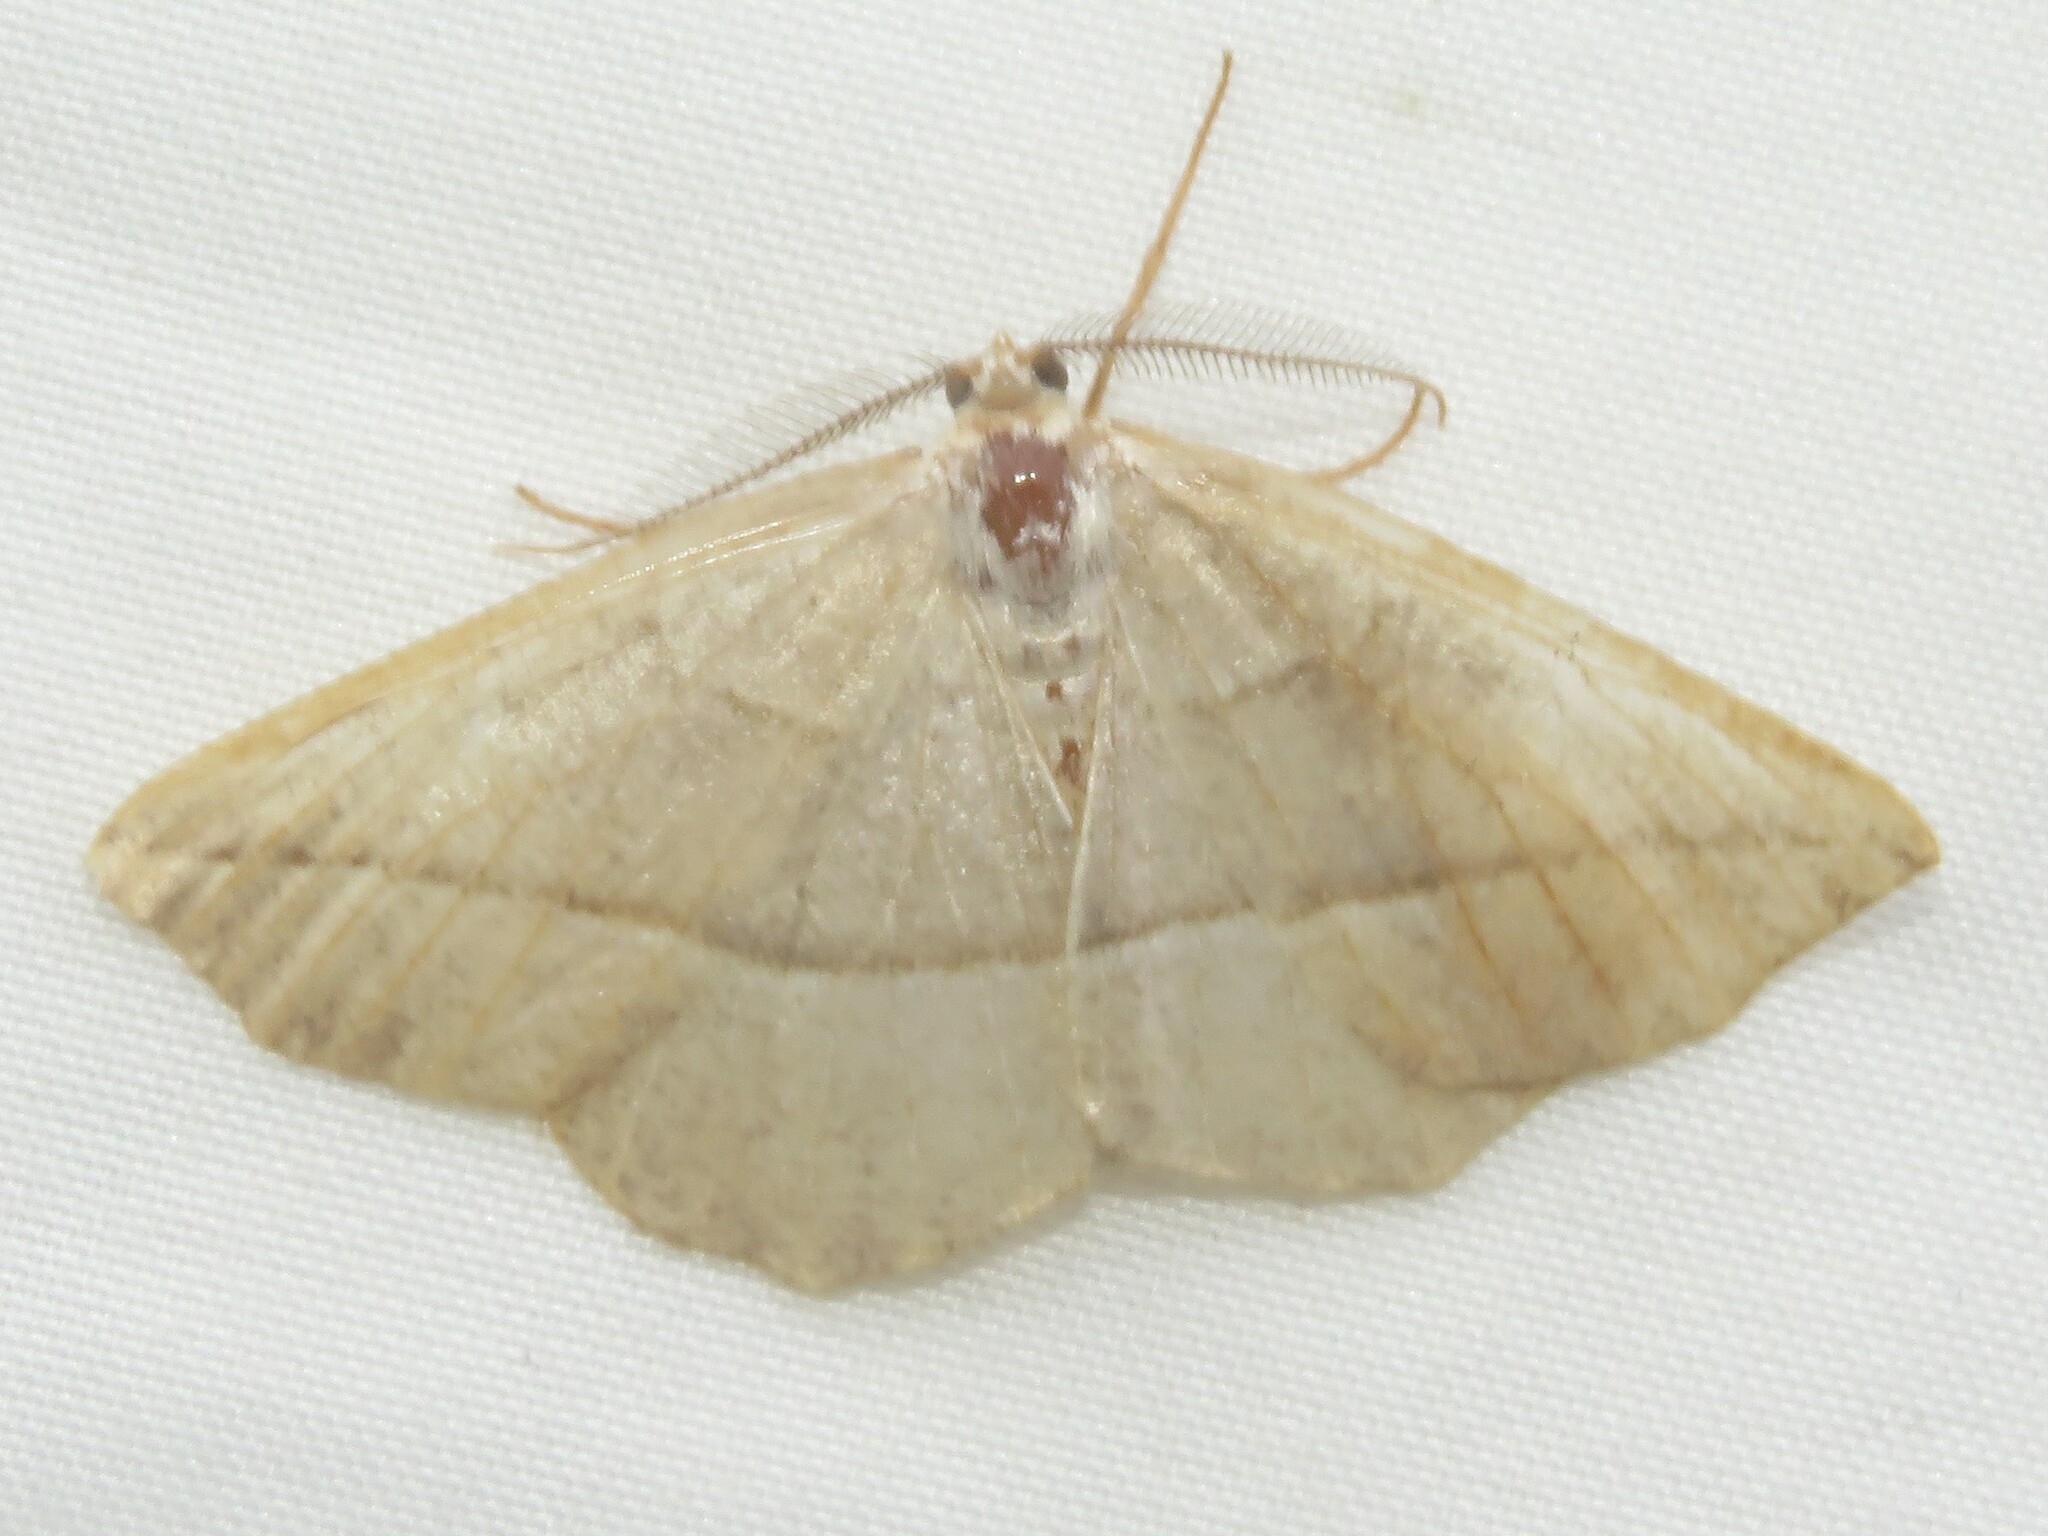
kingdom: Animalia
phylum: Arthropoda
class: Insecta
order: Lepidoptera
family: Geometridae
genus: Eusarca
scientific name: Eusarca confusaria
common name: Confused eusarca
